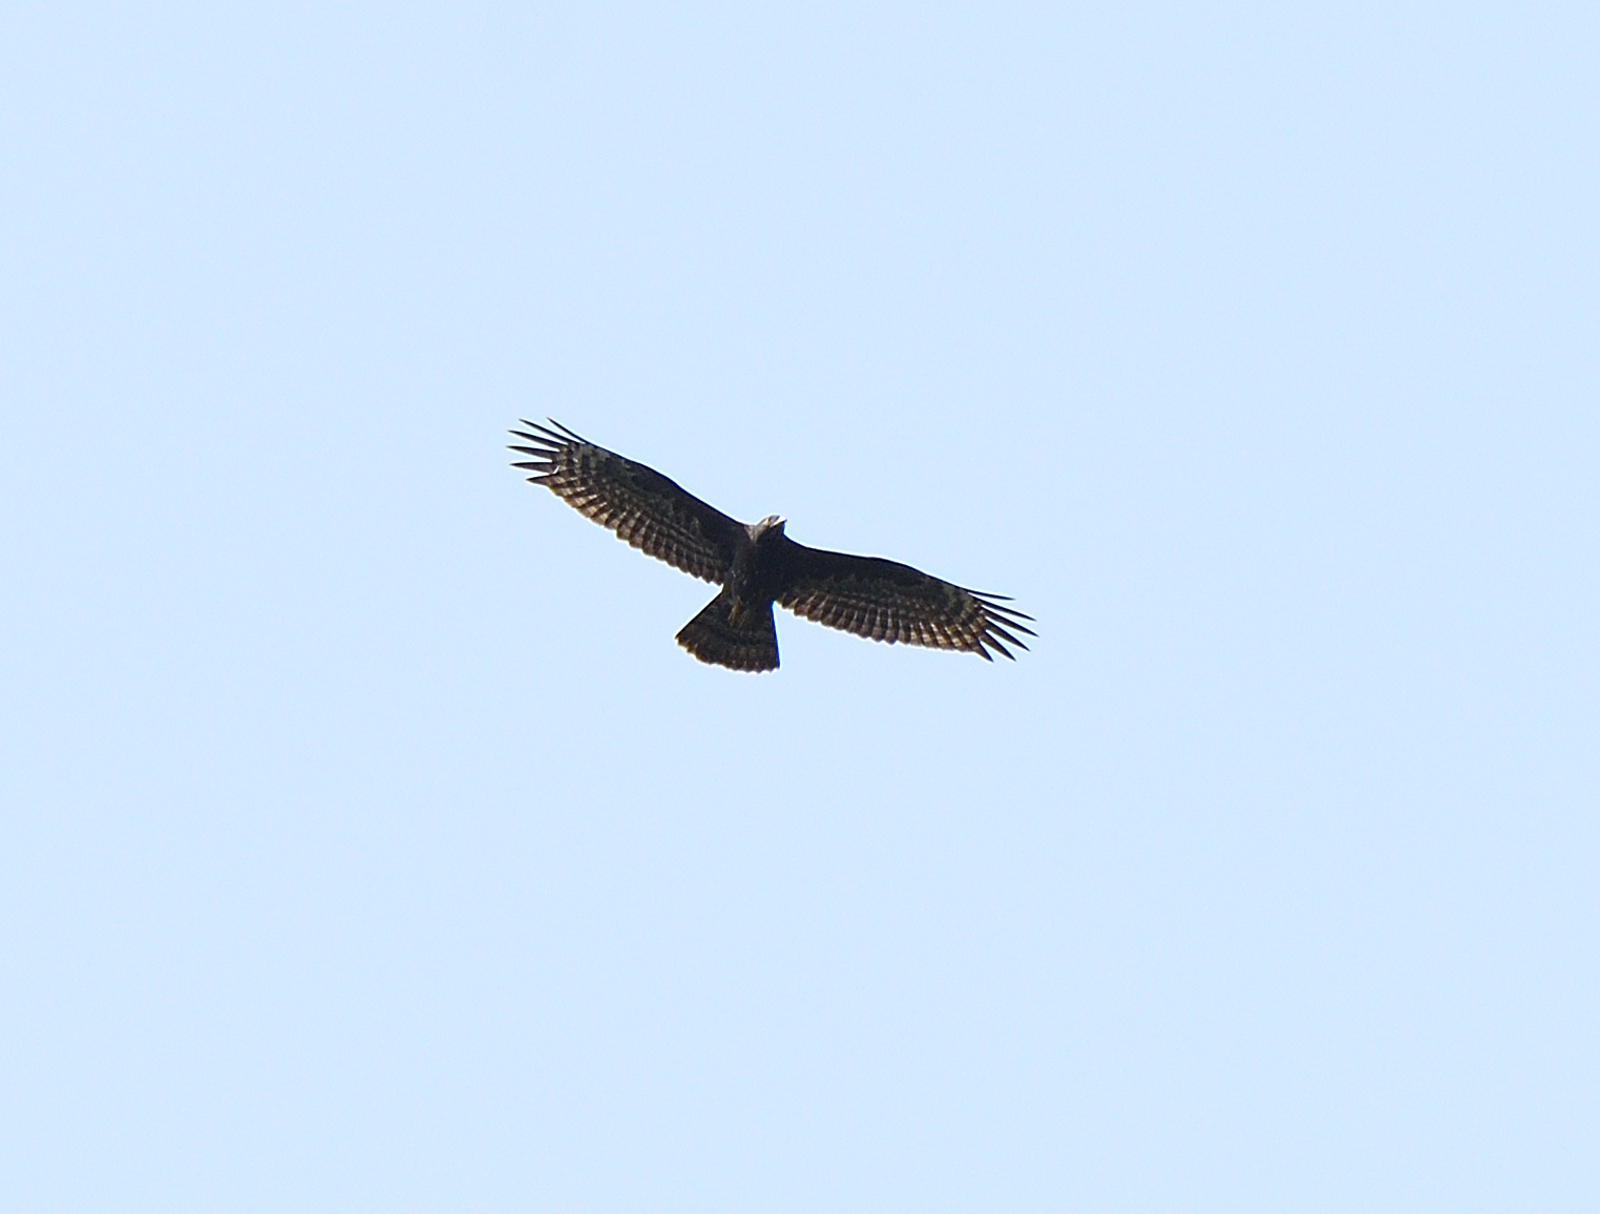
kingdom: Animalia
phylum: Chordata
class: Aves
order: Accipitriformes
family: Accipitridae
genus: Pernis
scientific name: Pernis ptilorhynchus
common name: Crested honey buzzard
